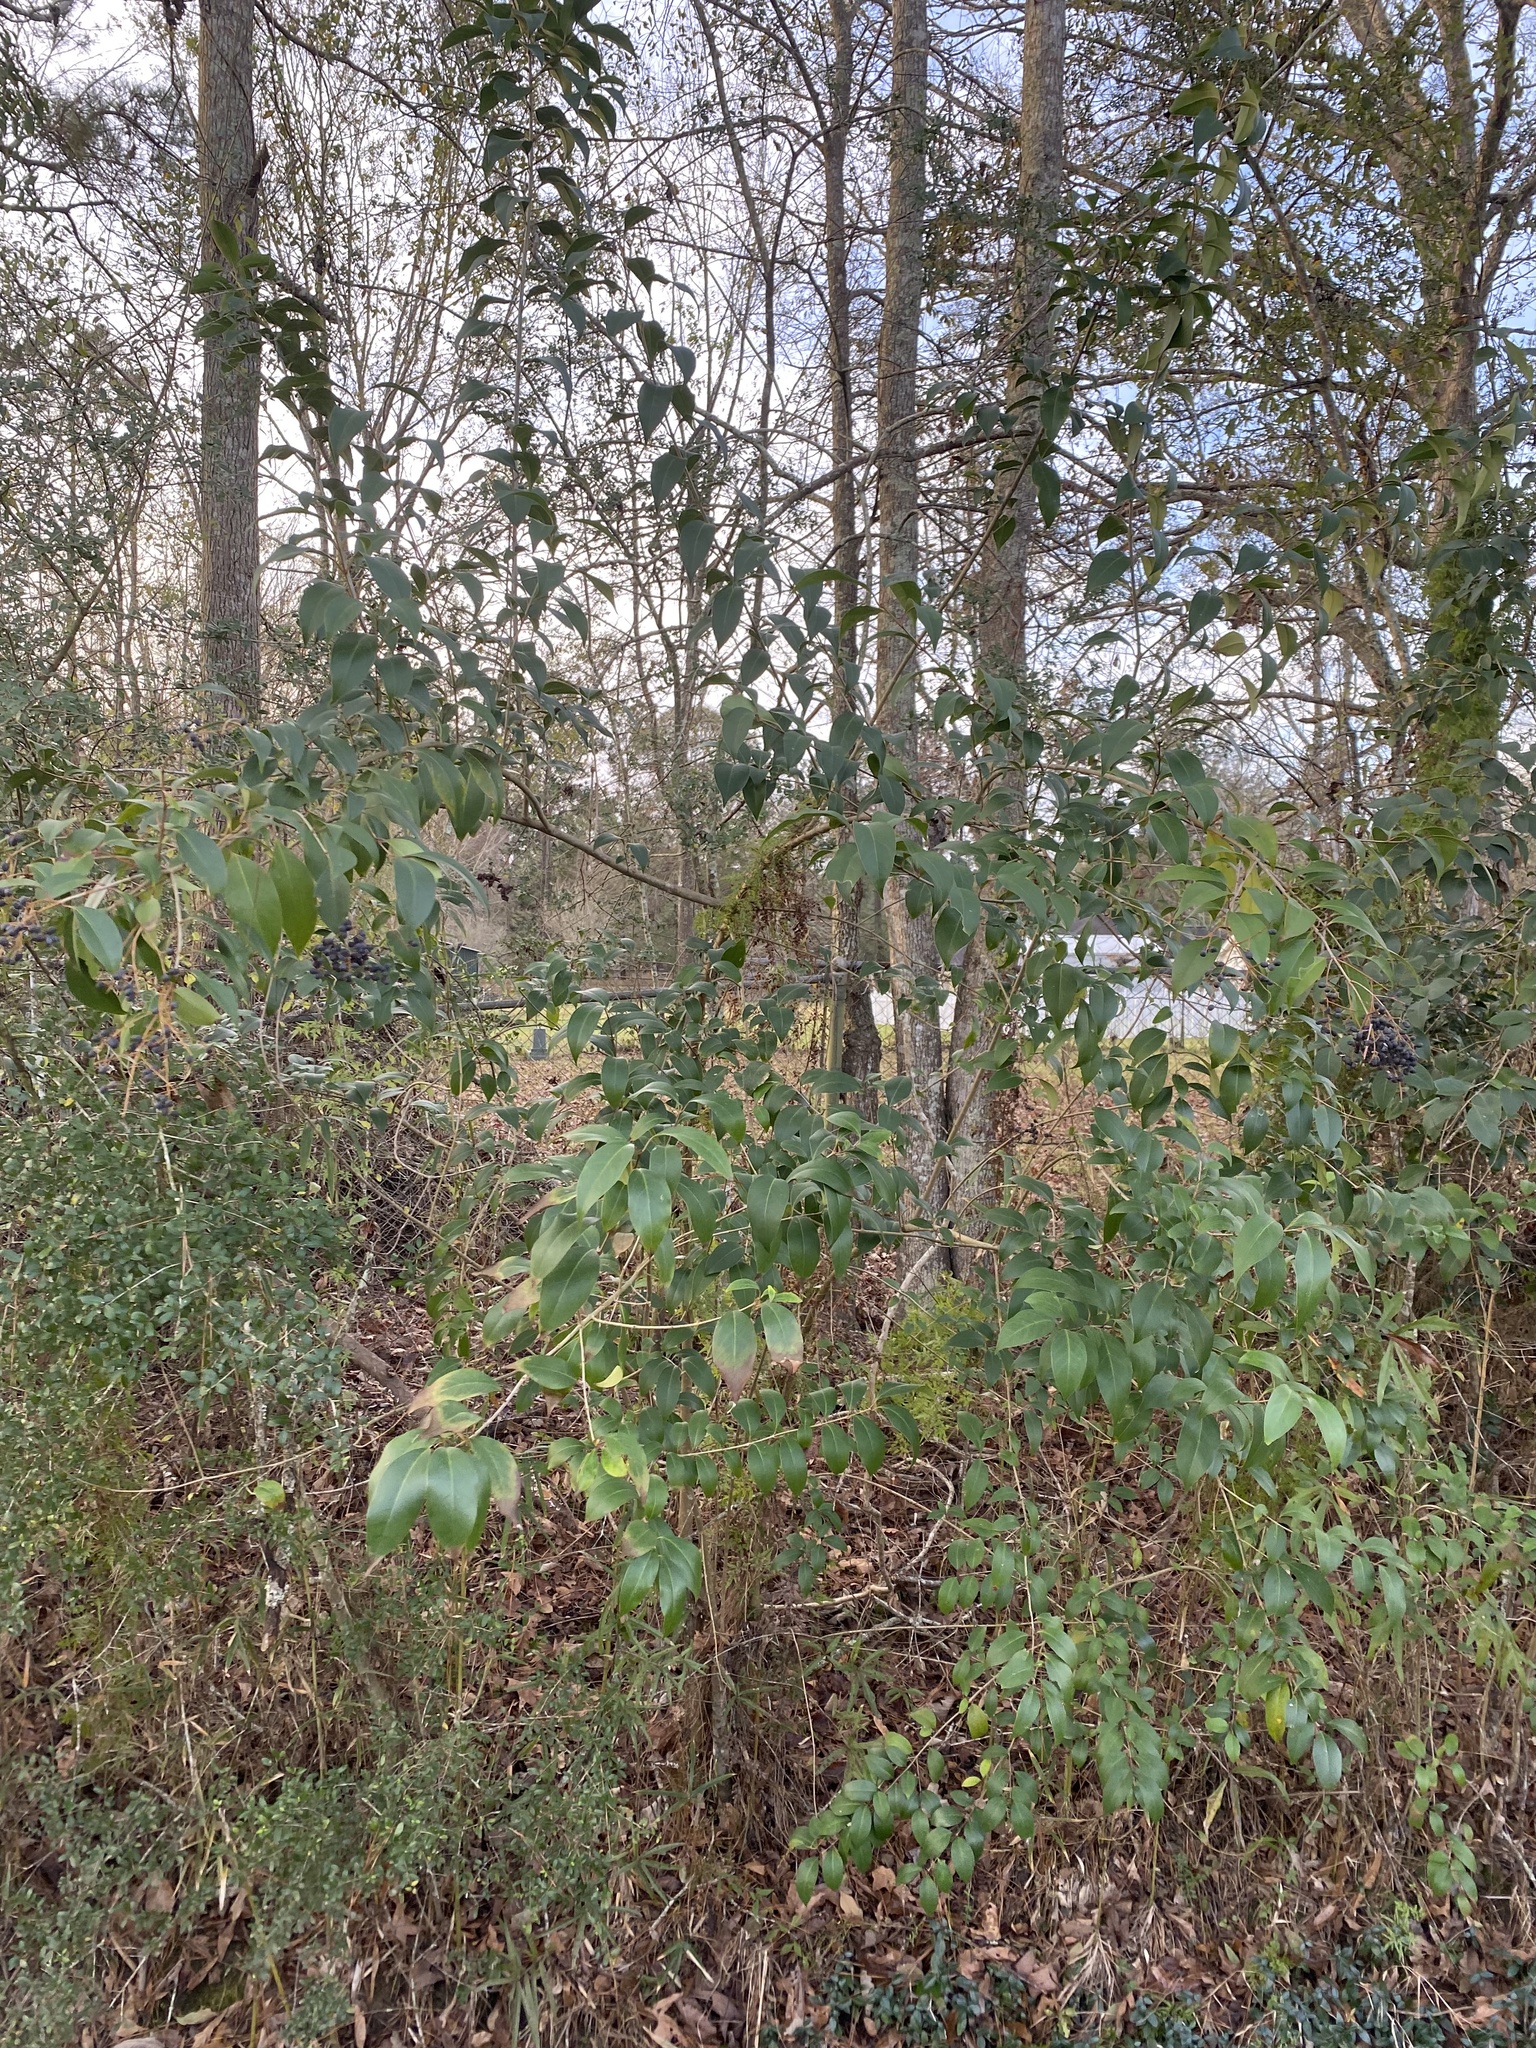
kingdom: Plantae
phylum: Tracheophyta
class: Magnoliopsida
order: Lamiales
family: Oleaceae
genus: Ligustrum
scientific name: Ligustrum lucidum
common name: Glossy privet
